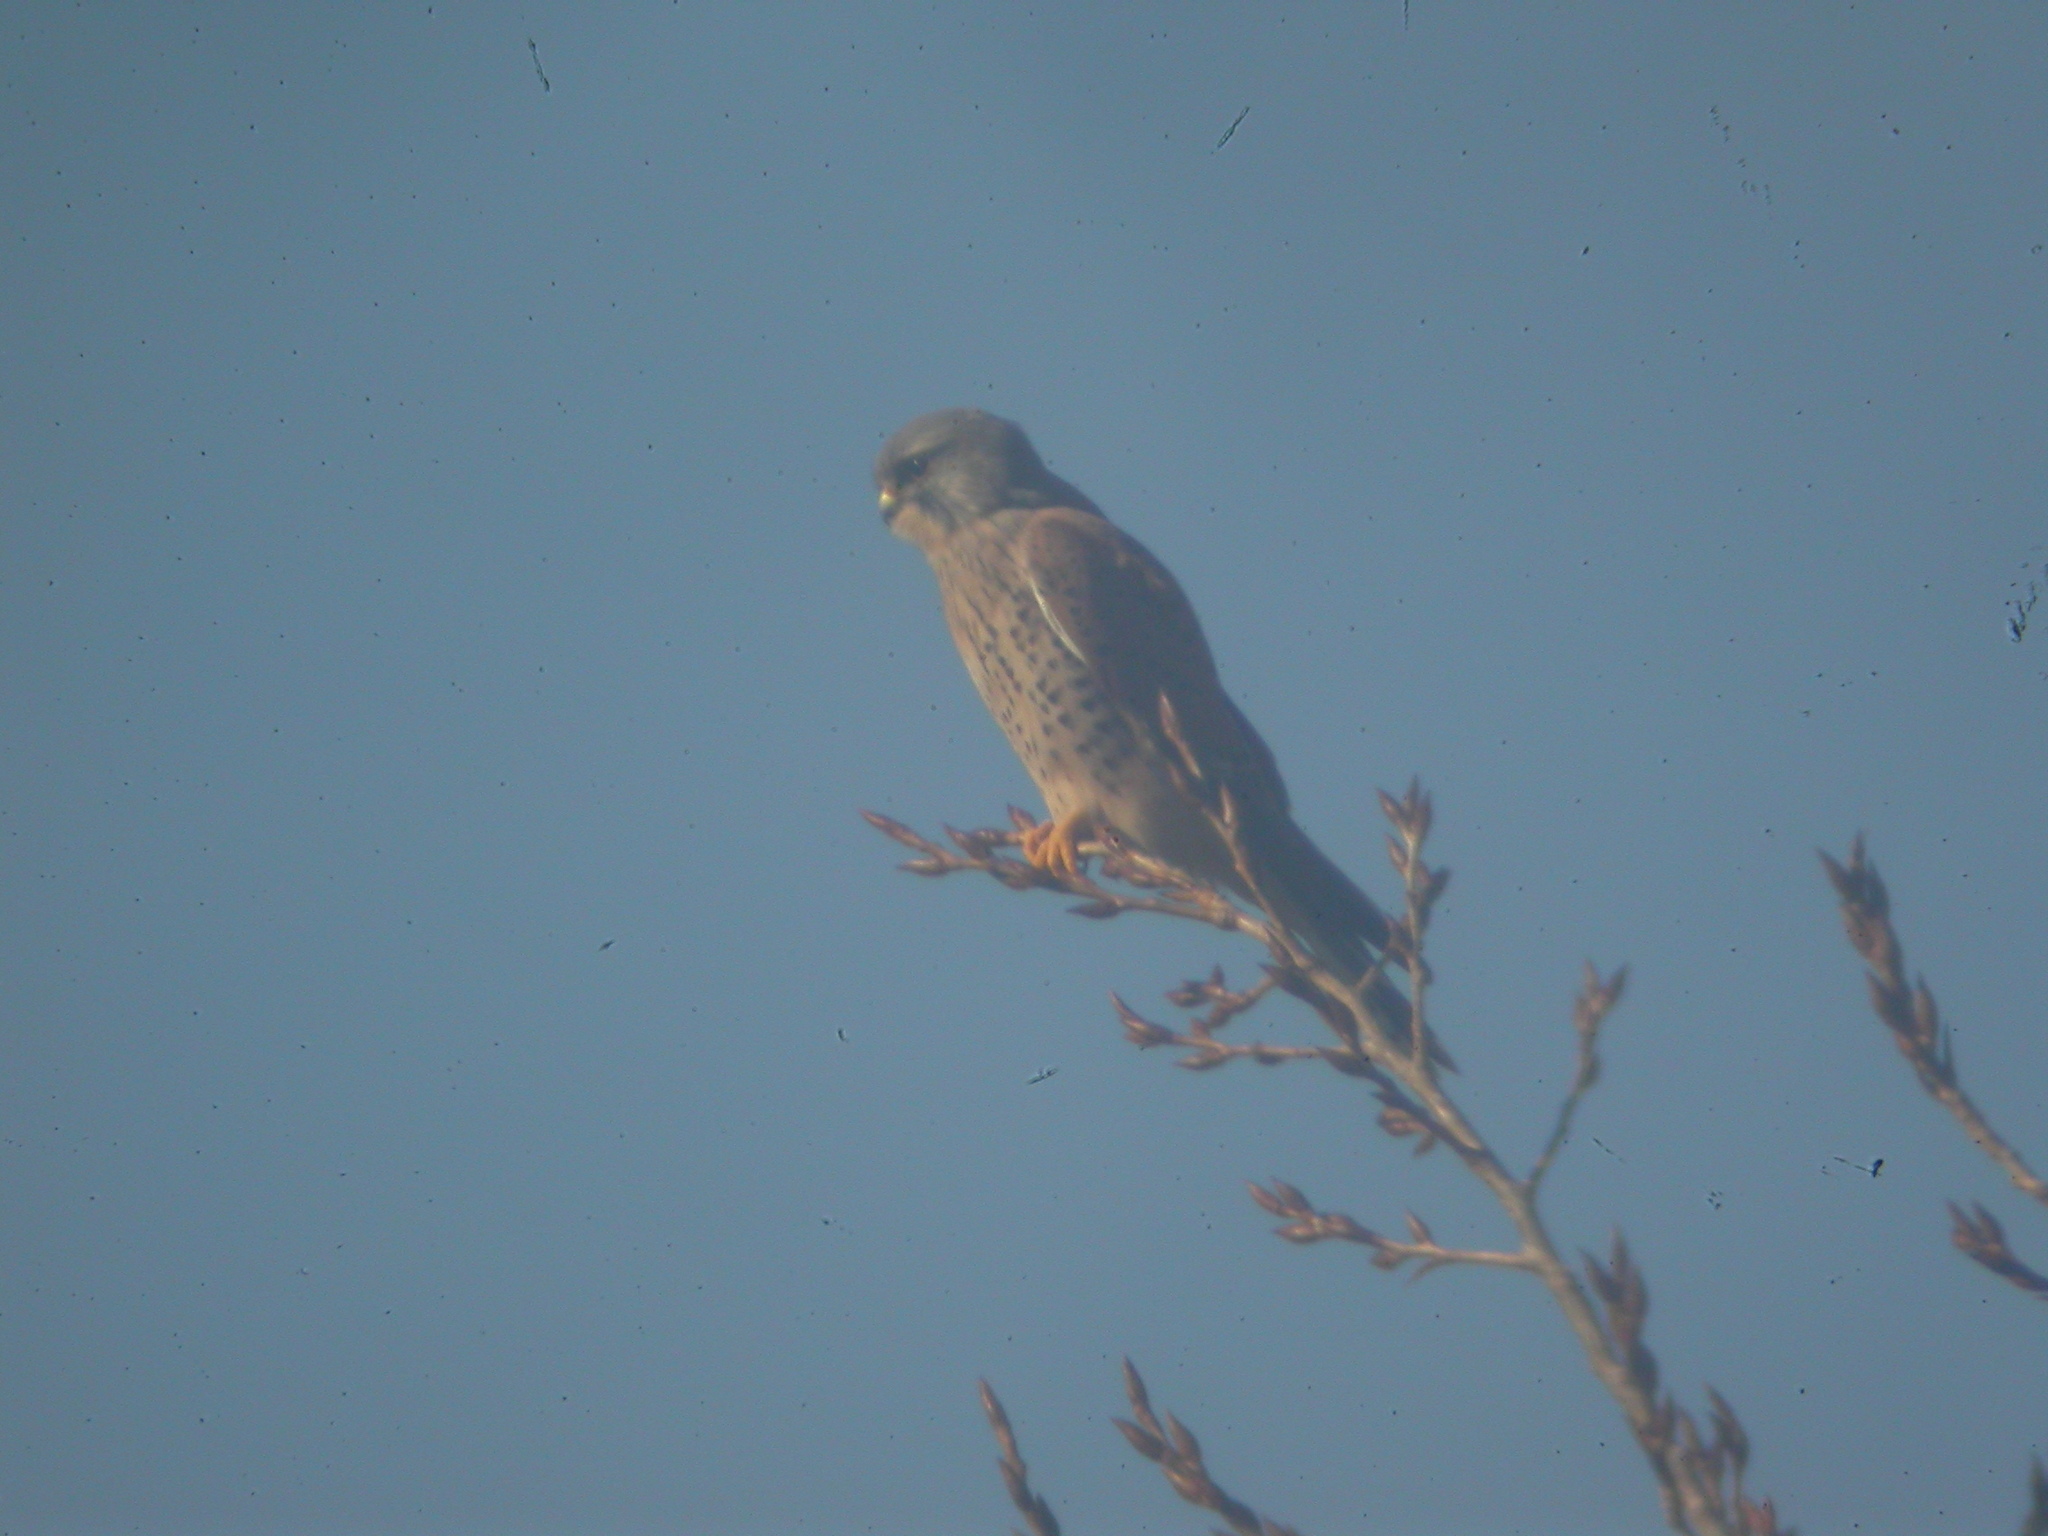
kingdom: Animalia
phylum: Chordata
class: Aves
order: Falconiformes
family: Falconidae
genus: Falco
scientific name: Falco cenchroides
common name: Nankeen kestrel
